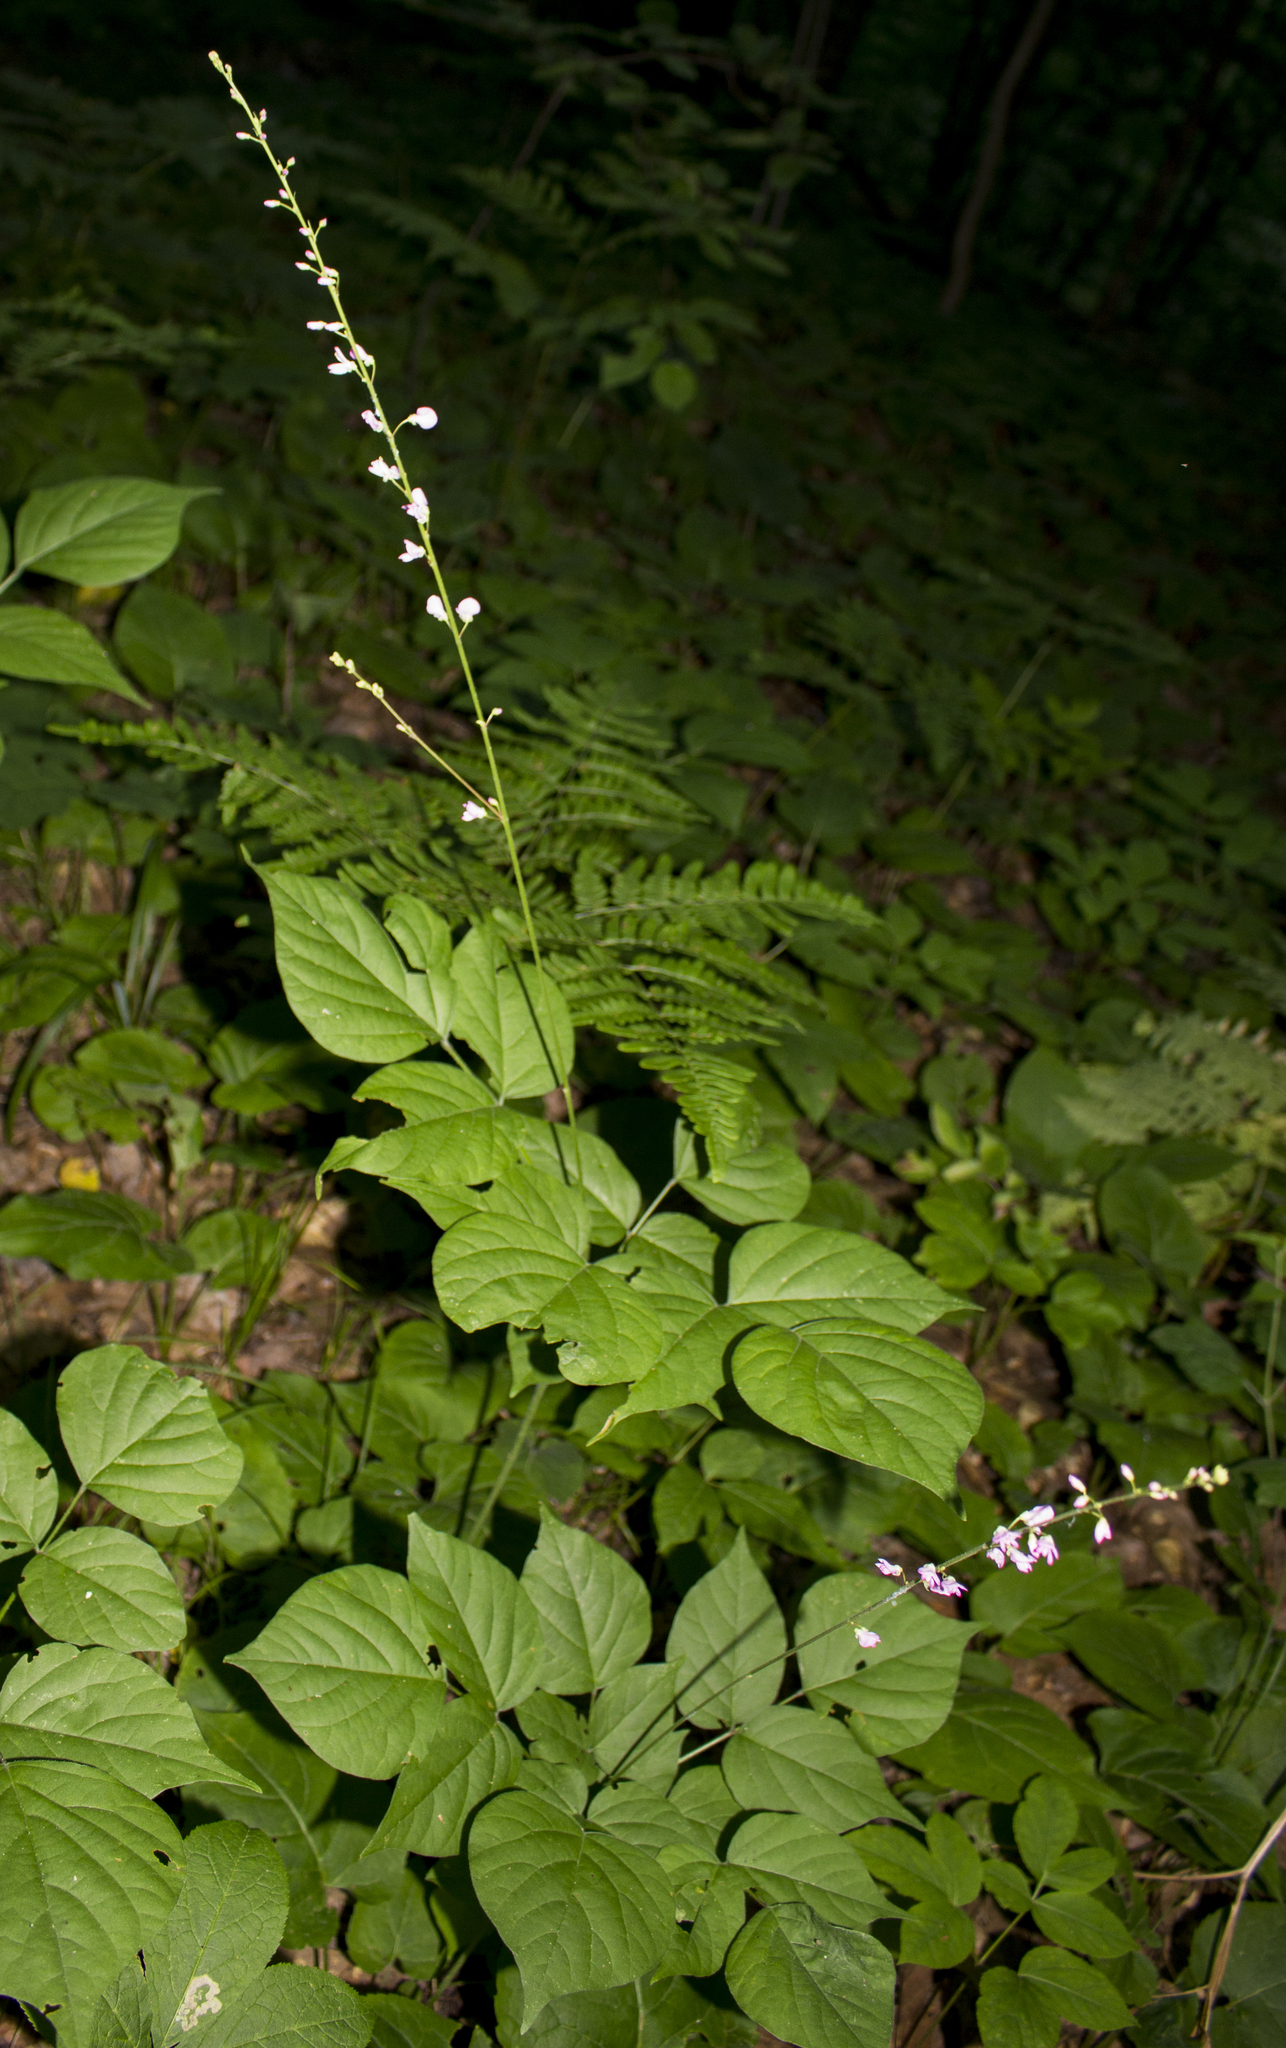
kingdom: Plantae
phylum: Tracheophyta
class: Magnoliopsida
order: Fabales
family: Fabaceae
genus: Hylodesmum
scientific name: Hylodesmum glutinosum
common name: Clustered-leaved tick-trefoil
